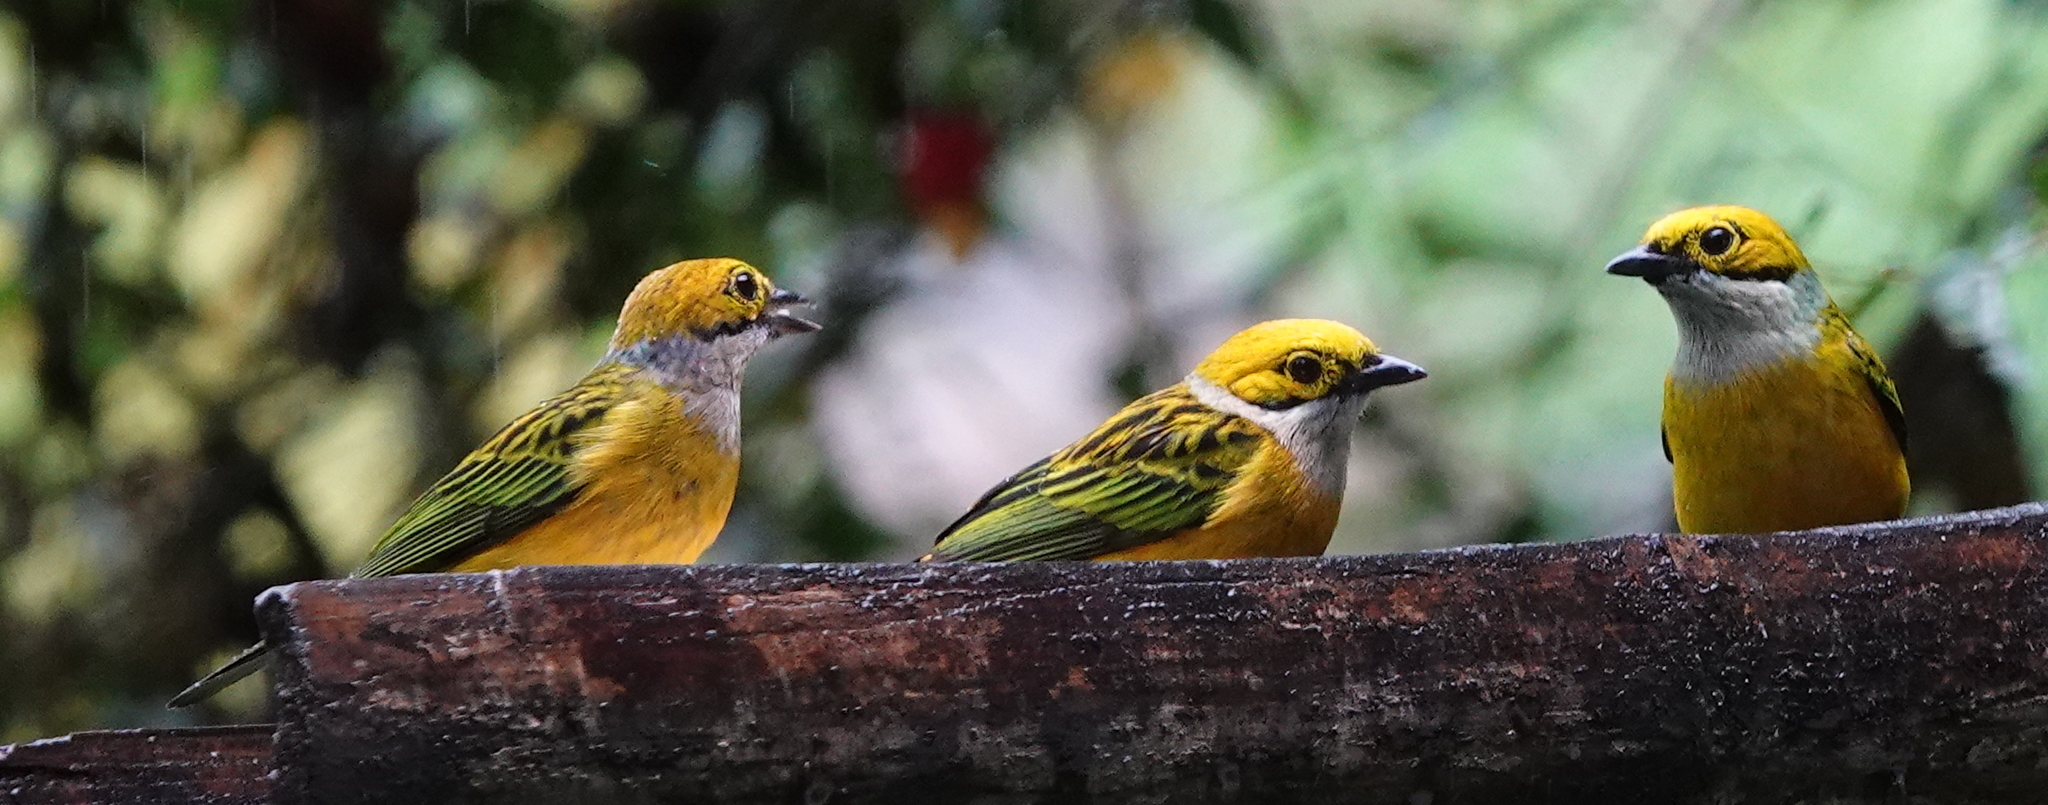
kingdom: Animalia
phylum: Chordata
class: Aves
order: Passeriformes
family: Thraupidae
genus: Tangara
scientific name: Tangara icterocephala
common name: Silver-throated tanager
